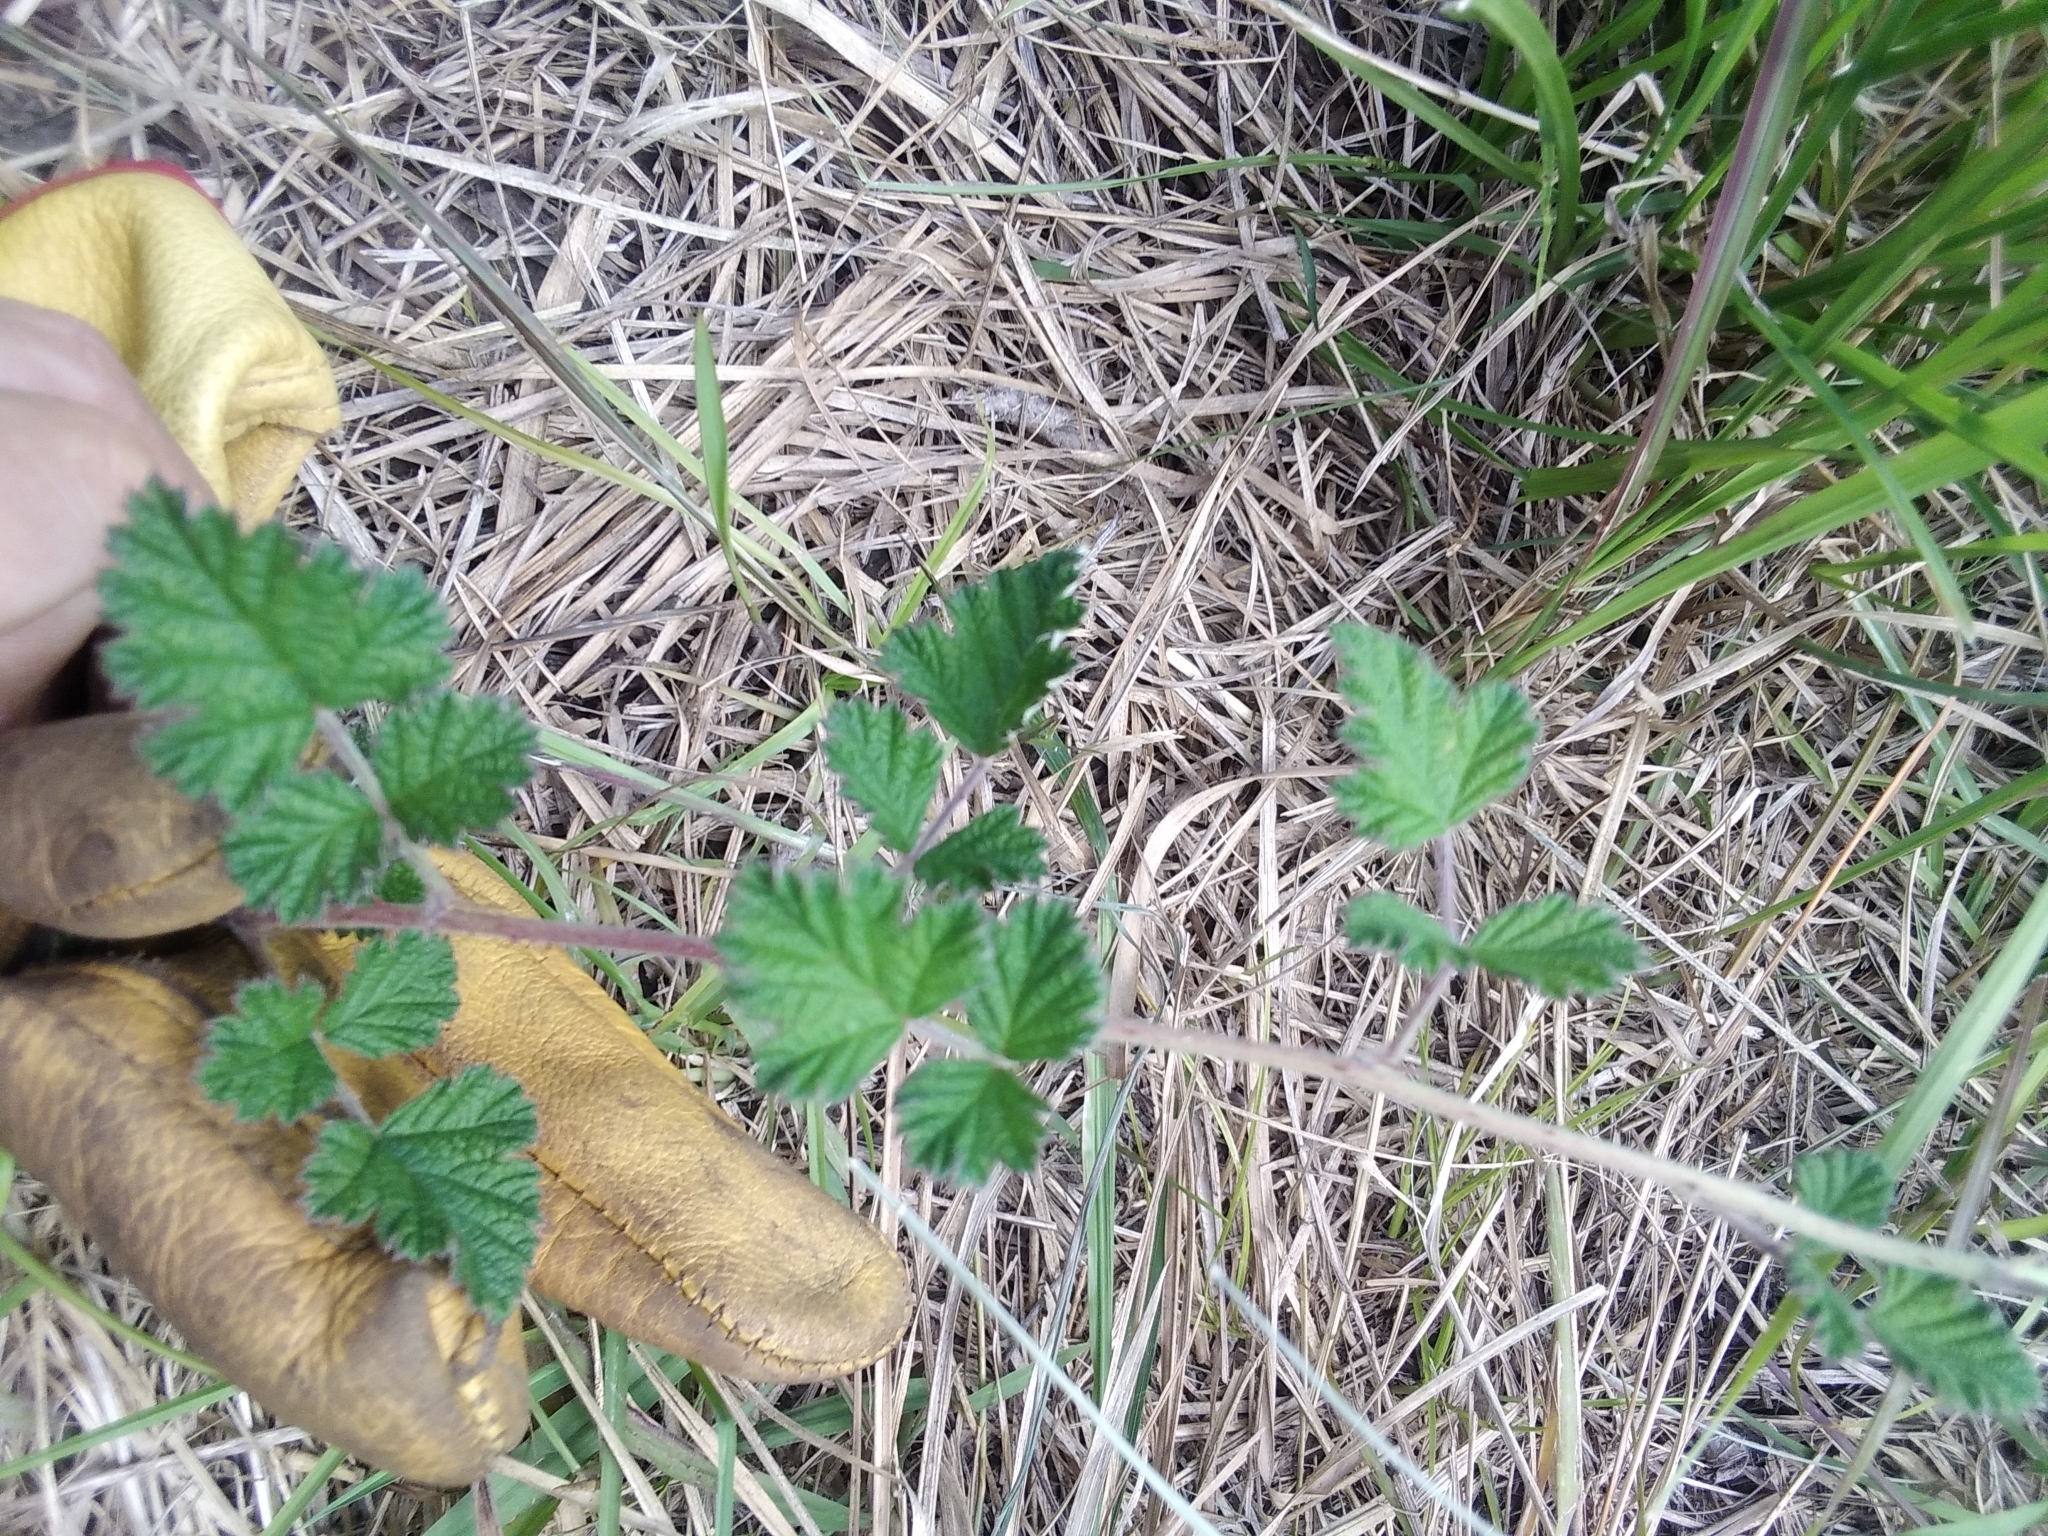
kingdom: Plantae
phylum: Tracheophyta
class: Magnoliopsida
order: Rosales
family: Rosaceae
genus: Rubus
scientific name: Rubus parvifolius
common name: Threeleaf blackberry
